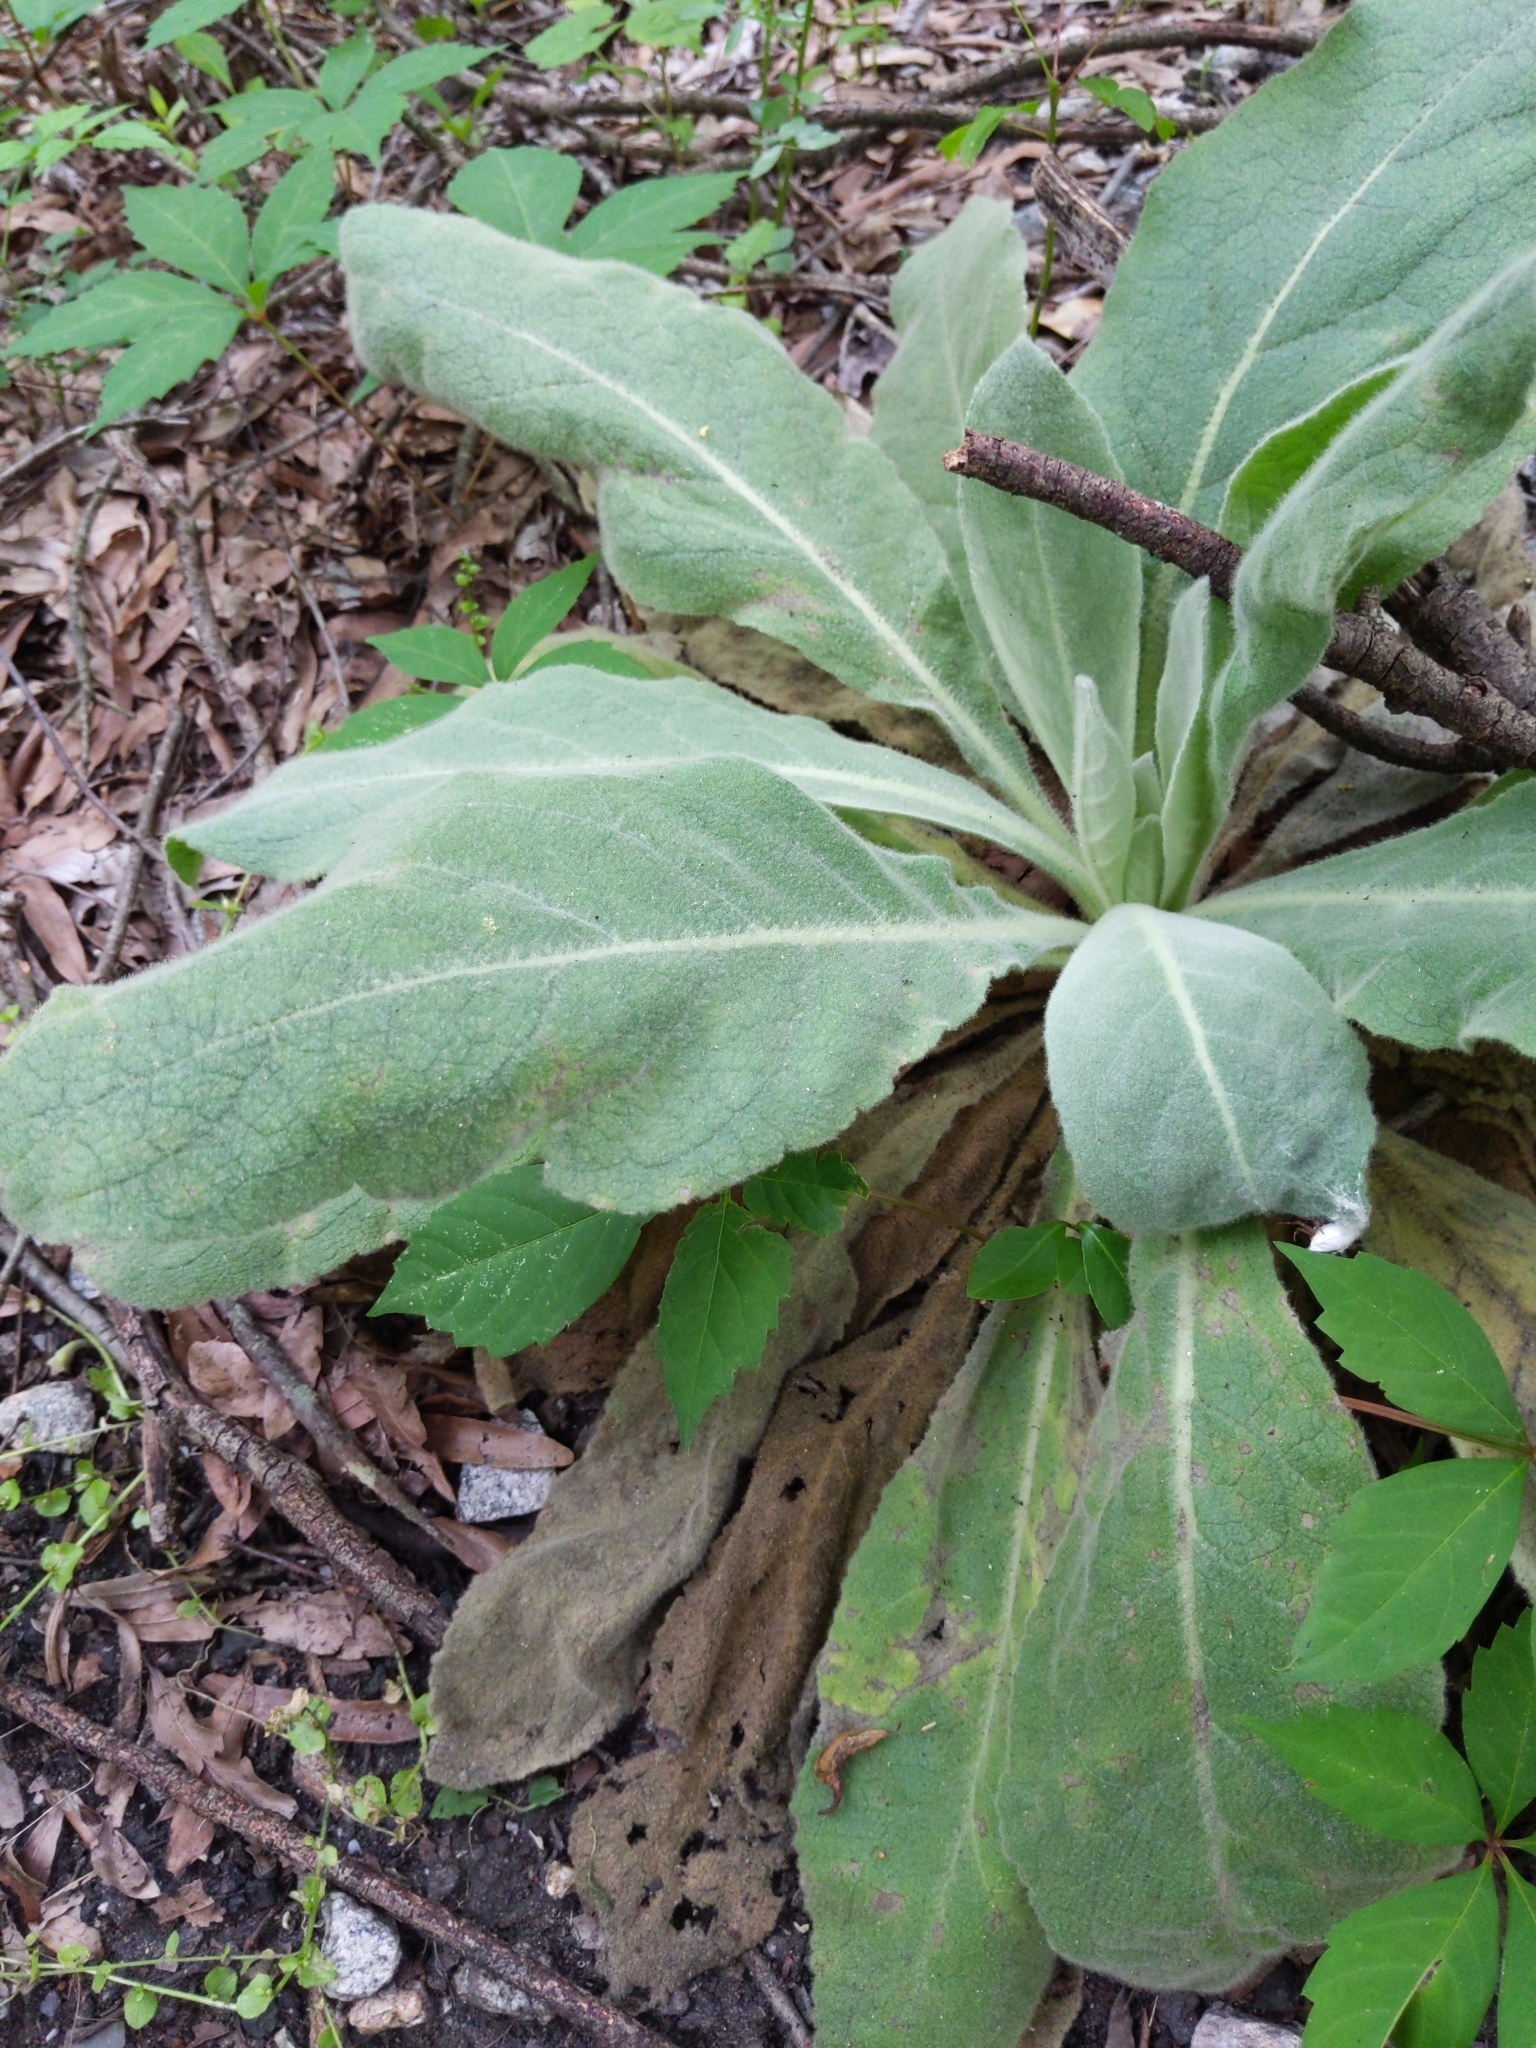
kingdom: Plantae
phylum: Tracheophyta
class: Magnoliopsida
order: Lamiales
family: Scrophulariaceae
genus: Verbascum
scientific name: Verbascum thapsus
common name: Common mullein
